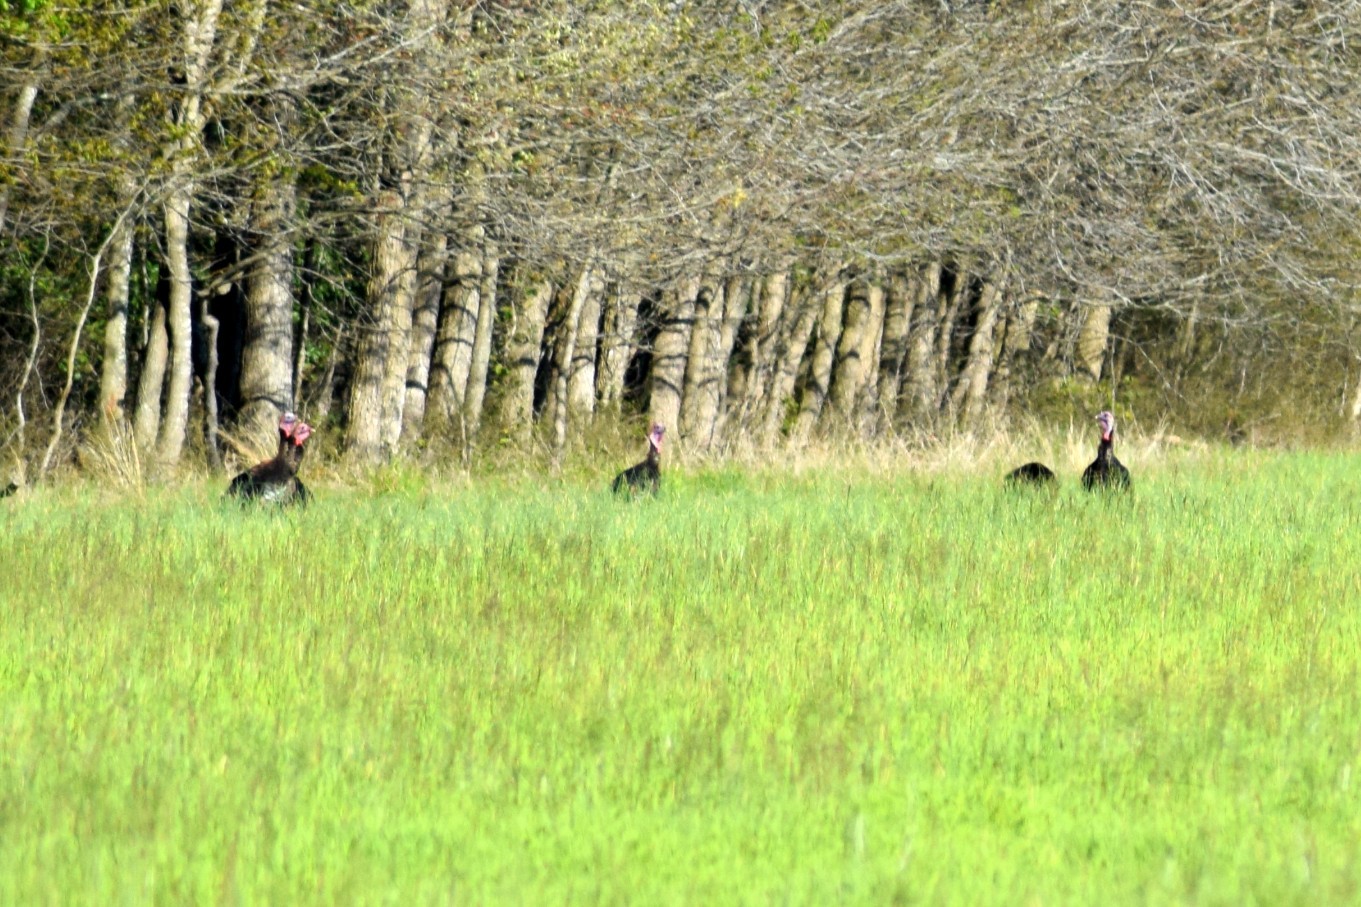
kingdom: Animalia
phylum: Chordata
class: Aves
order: Galliformes
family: Phasianidae
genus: Meleagris
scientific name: Meleagris gallopavo
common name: Wild turkey
